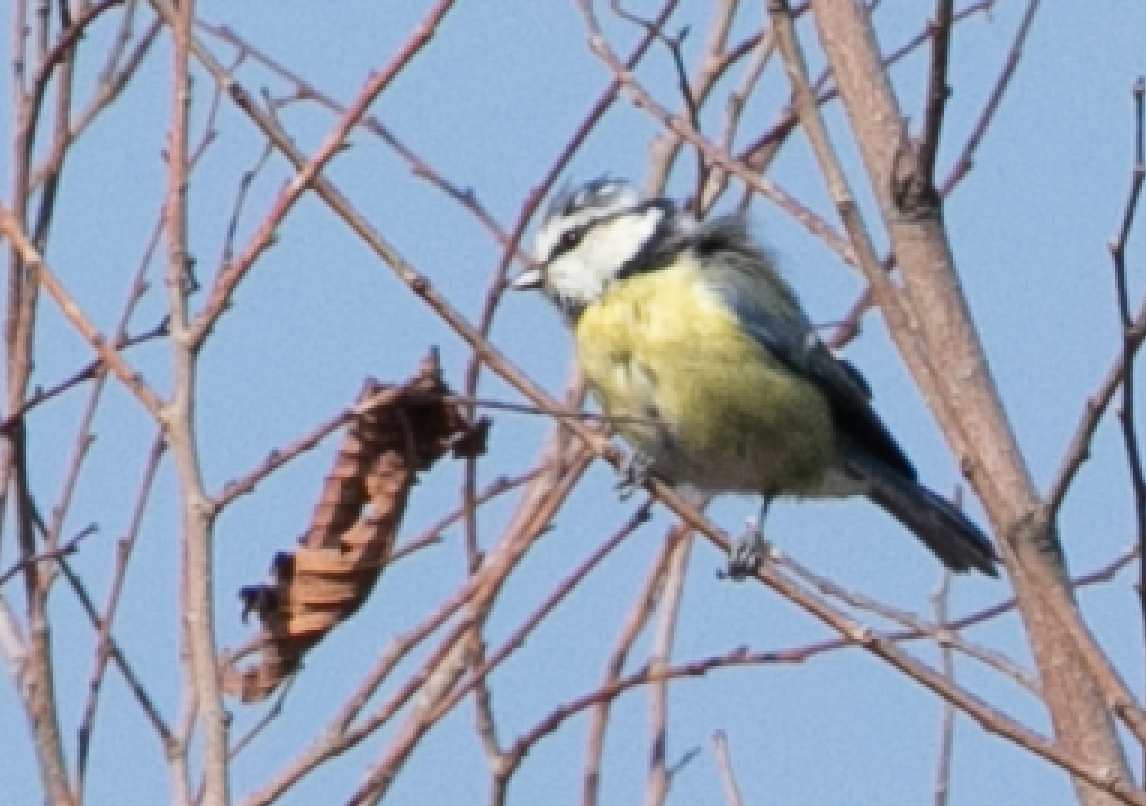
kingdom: Animalia
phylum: Chordata
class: Aves
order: Passeriformes
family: Paridae
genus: Cyanistes
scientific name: Cyanistes caeruleus
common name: Eurasian blue tit
